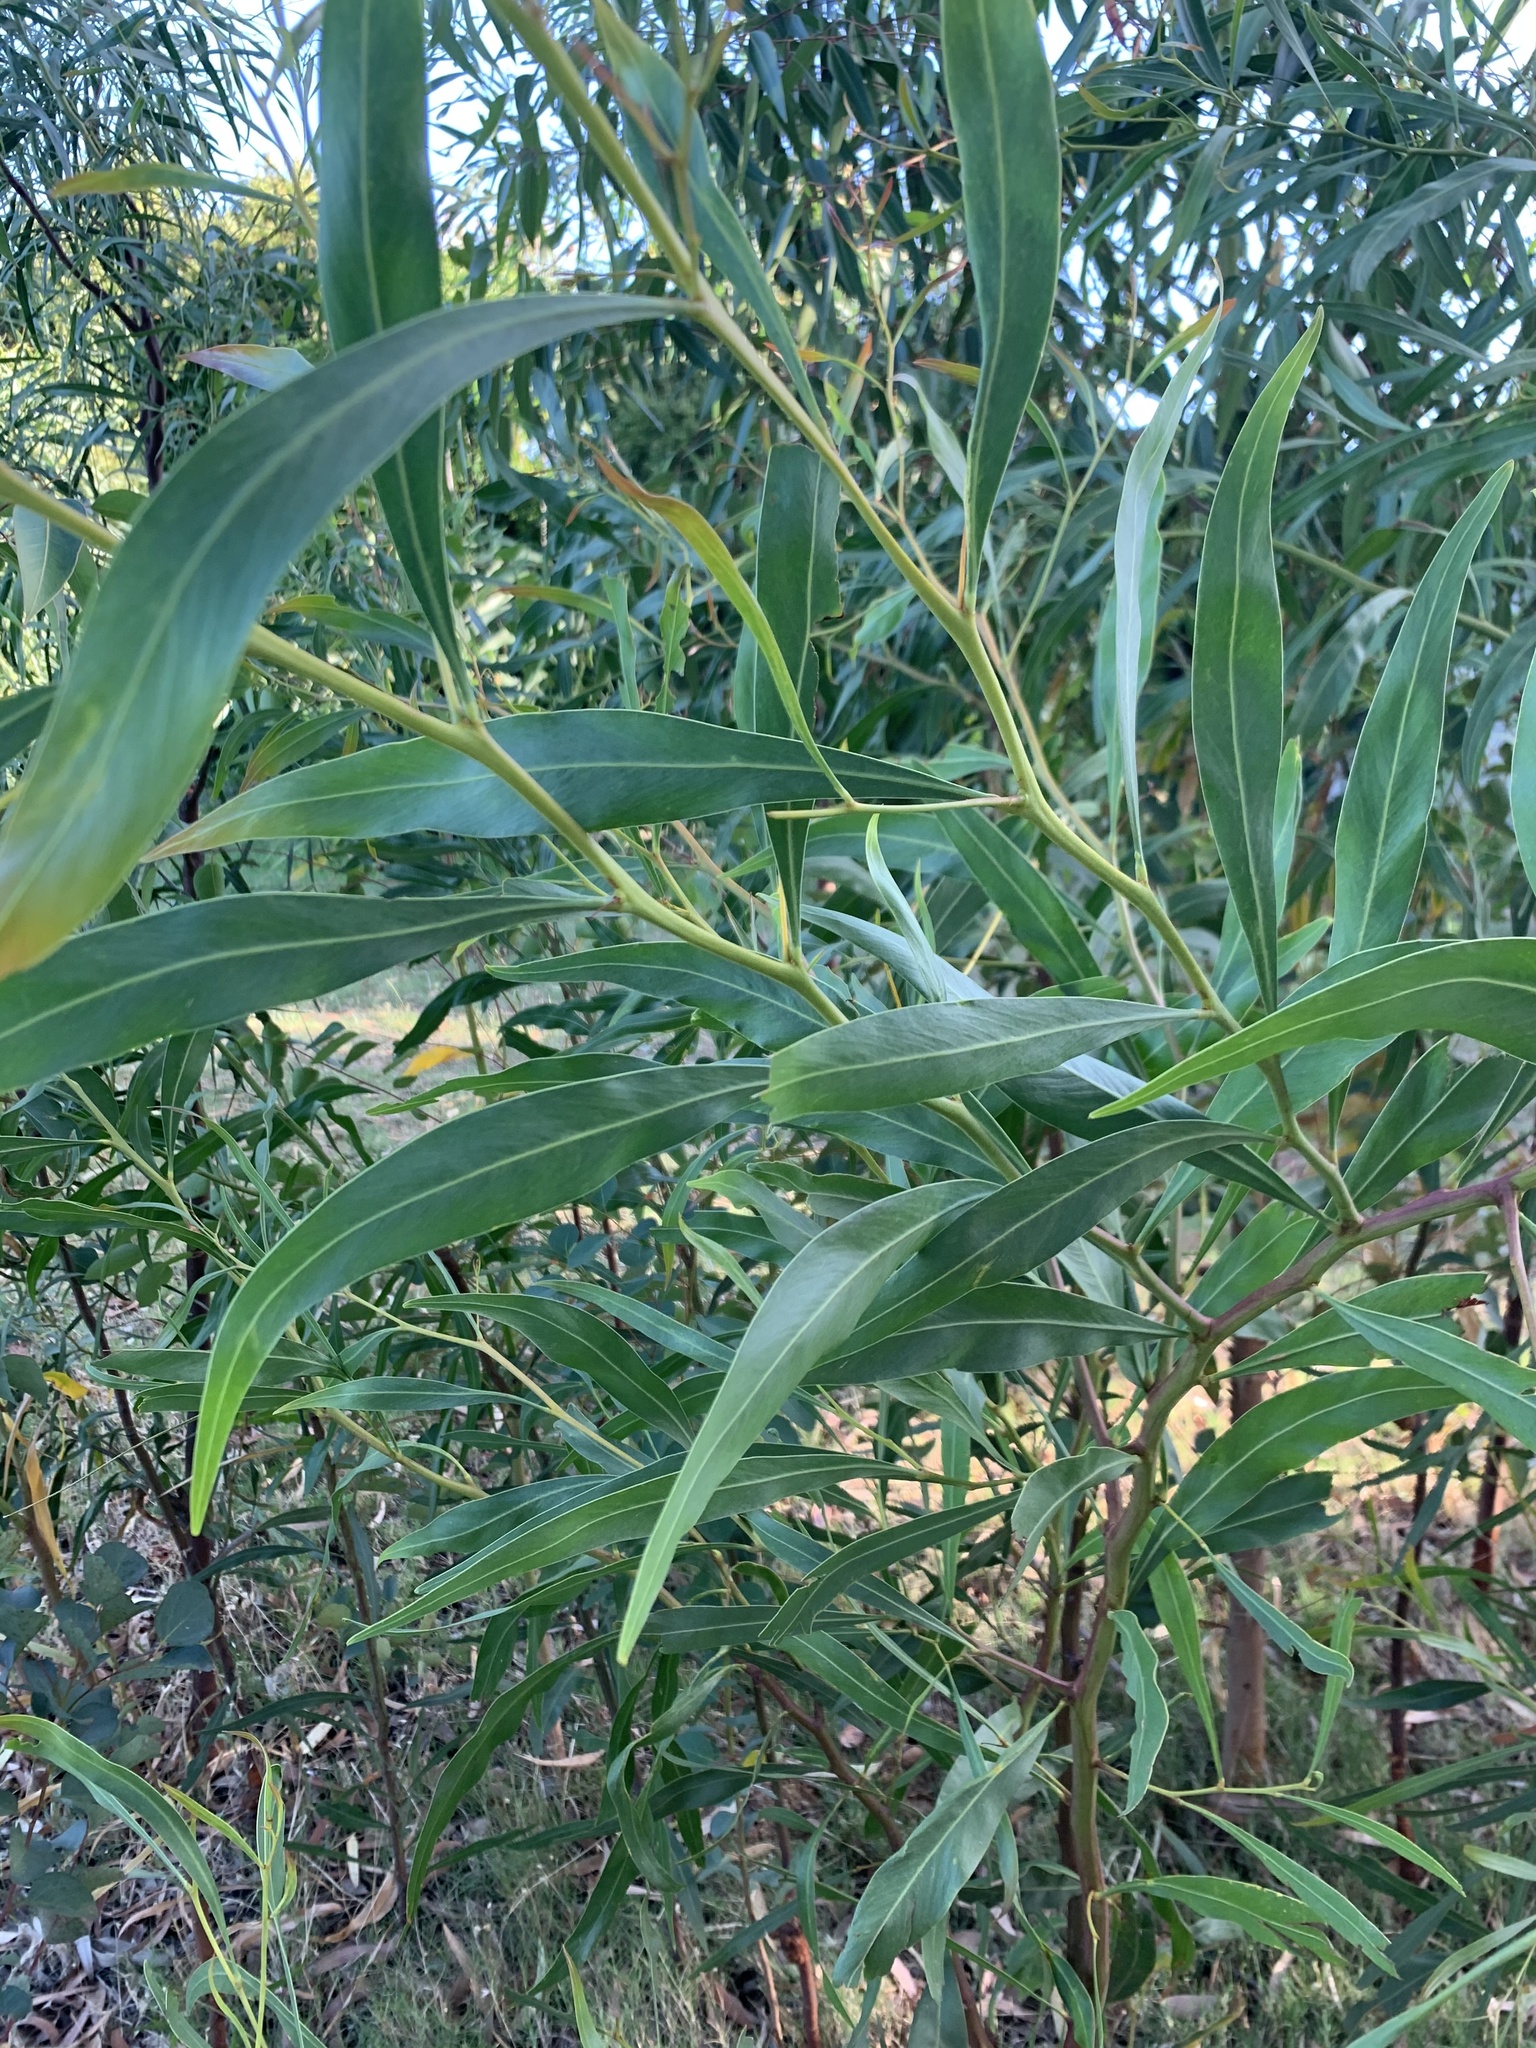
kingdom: Plantae
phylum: Tracheophyta
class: Magnoliopsida
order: Fabales
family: Fabaceae
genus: Acacia
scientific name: Acacia saligna
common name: Orange wattle
